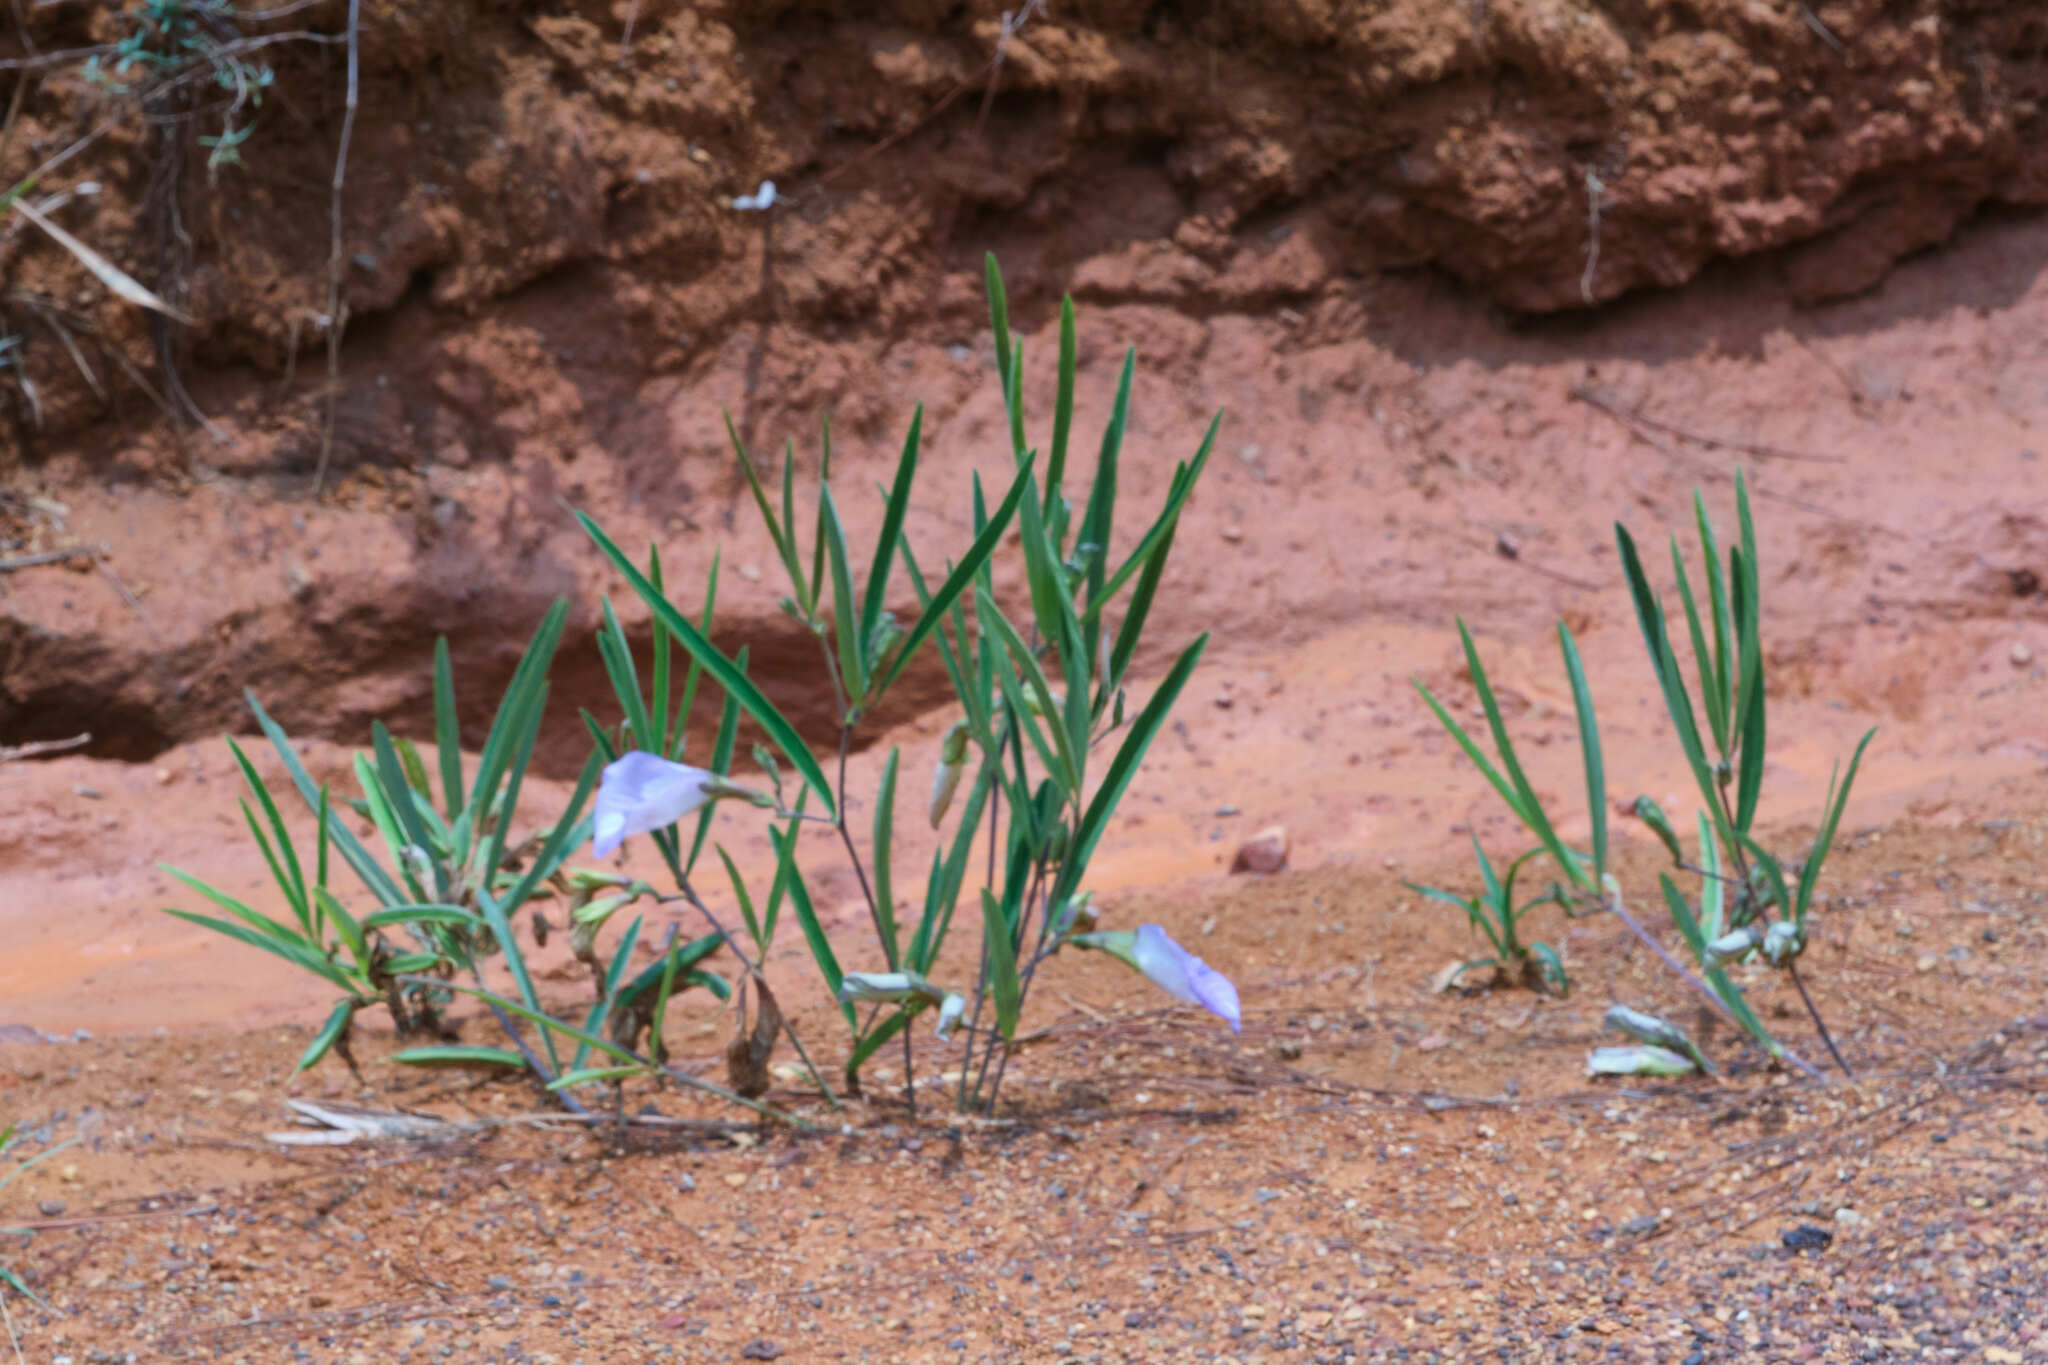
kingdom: Plantae
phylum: Tracheophyta
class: Magnoliopsida
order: Fabales
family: Fabaceae
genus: Clitoria
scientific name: Clitoria guianensis
